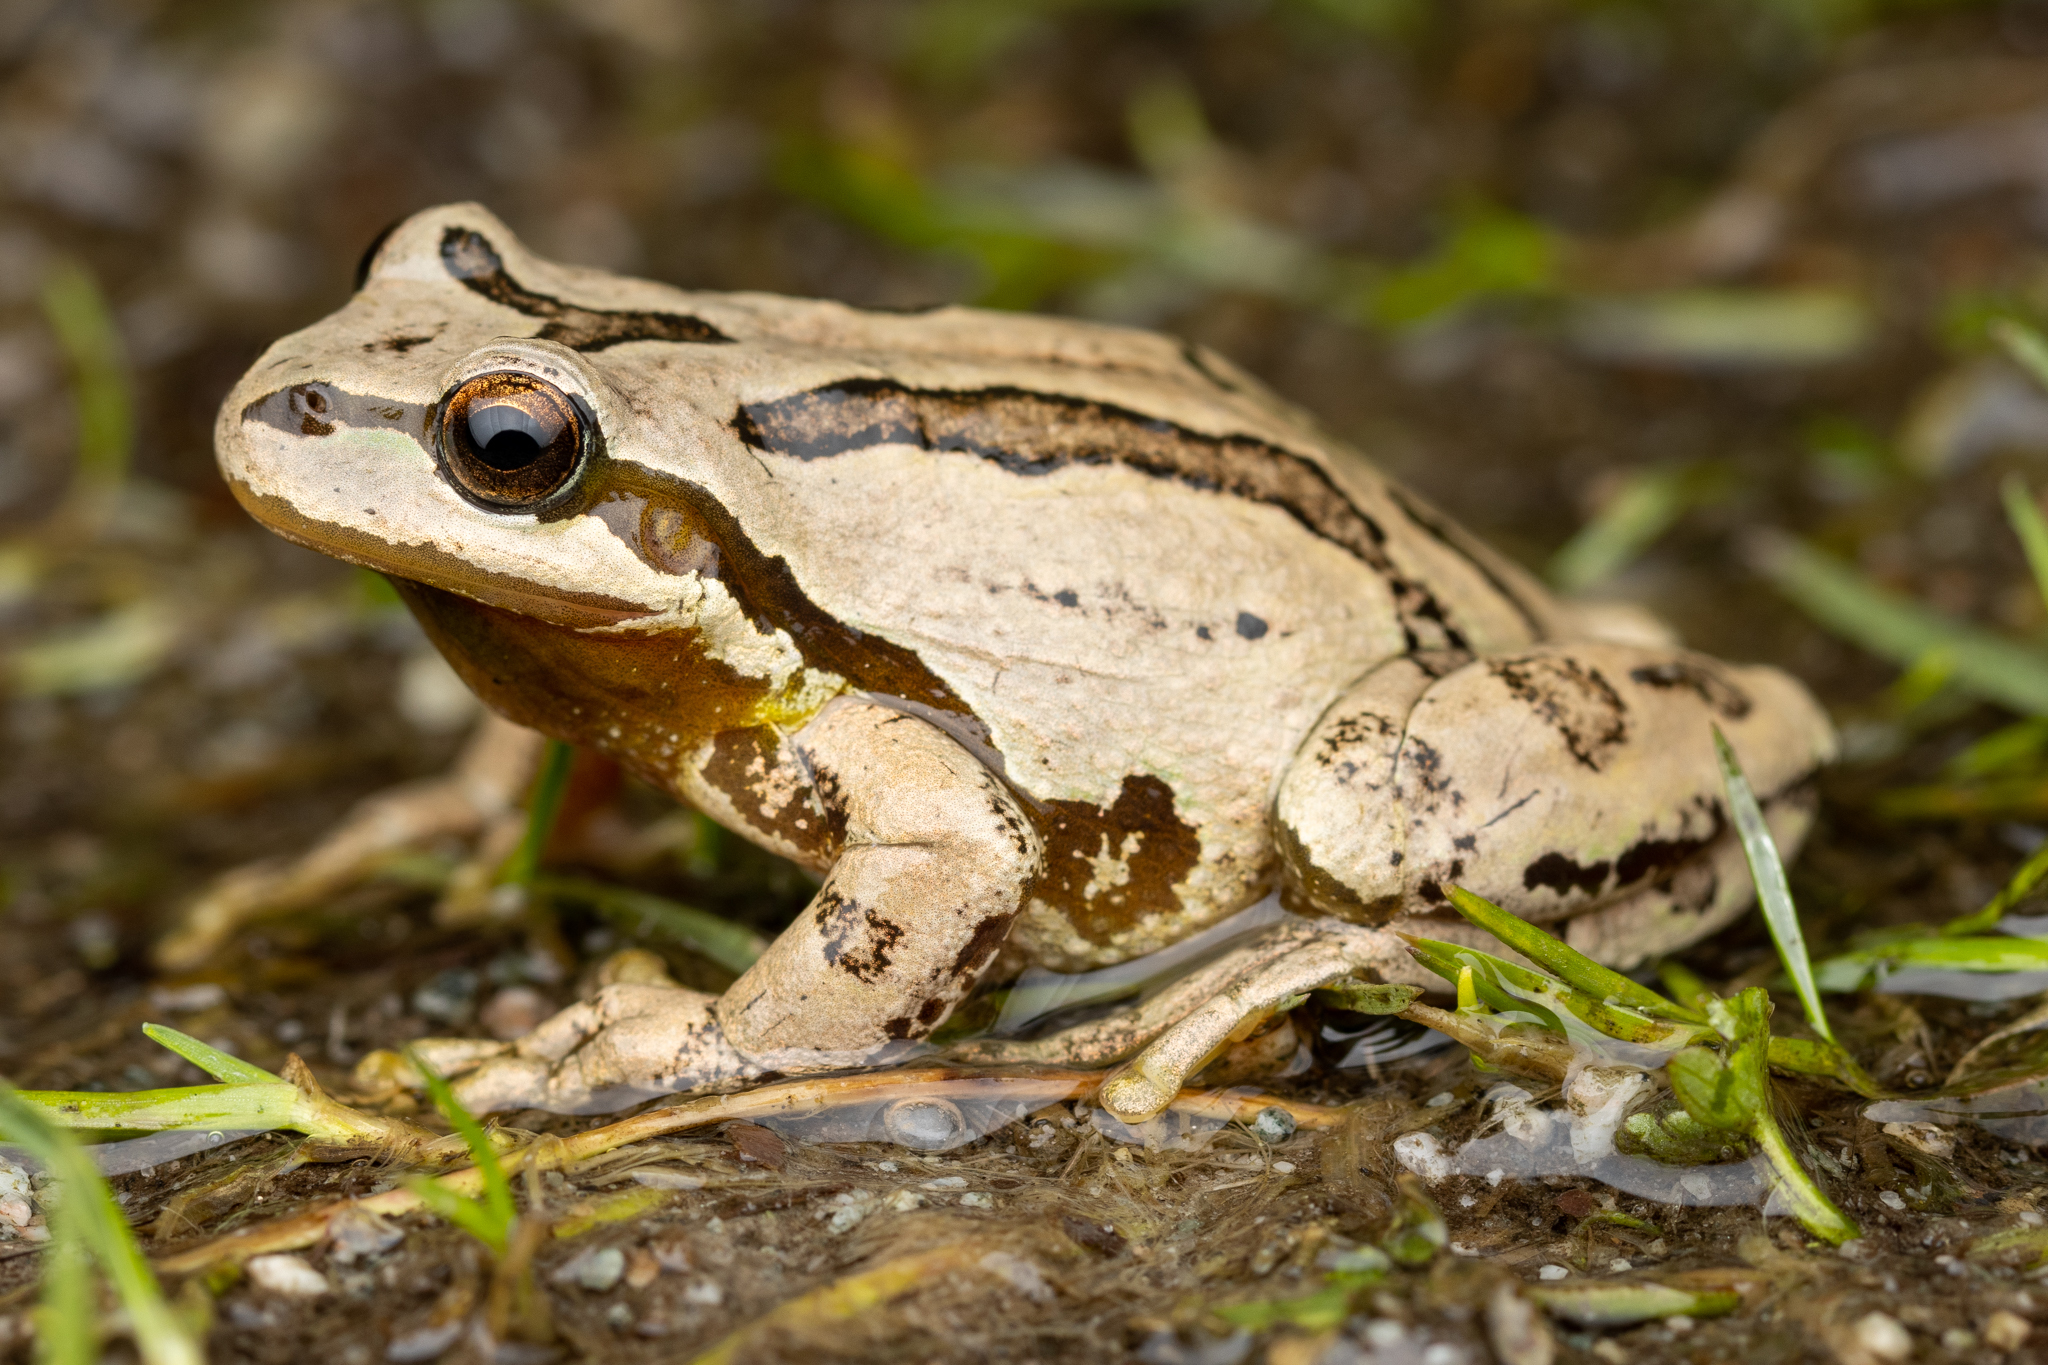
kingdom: Animalia
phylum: Chordata
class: Amphibia
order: Anura
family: Hylidae
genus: Pseudacris
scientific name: Pseudacris regilla
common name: Pacific chorus frog
